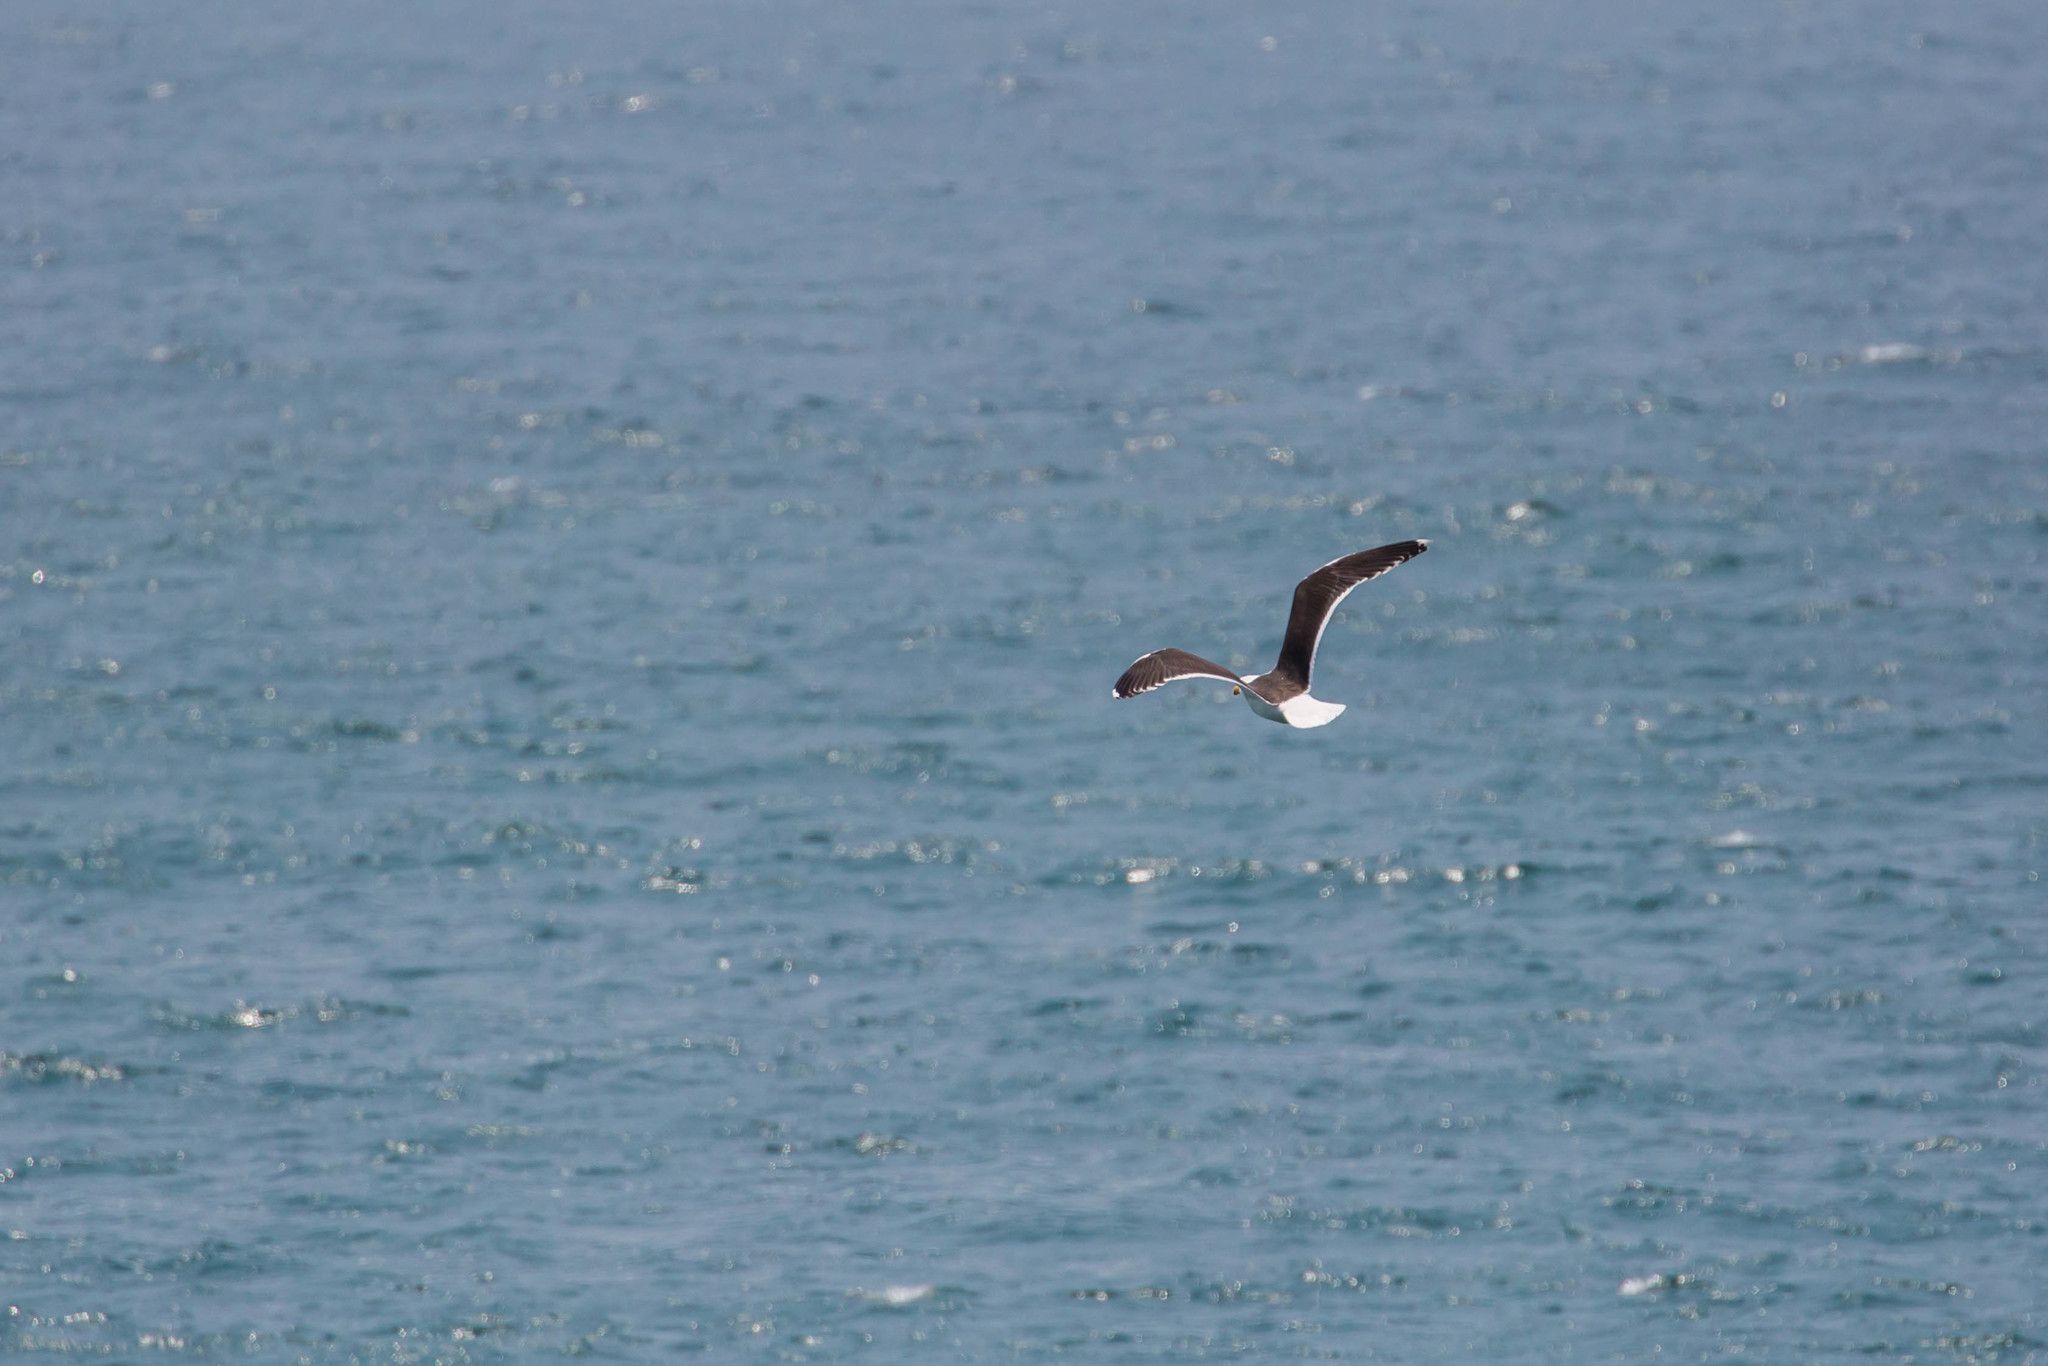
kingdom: Animalia
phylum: Chordata
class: Aves
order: Charadriiformes
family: Laridae
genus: Larus
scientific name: Larus marinus
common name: Great black-backed gull
